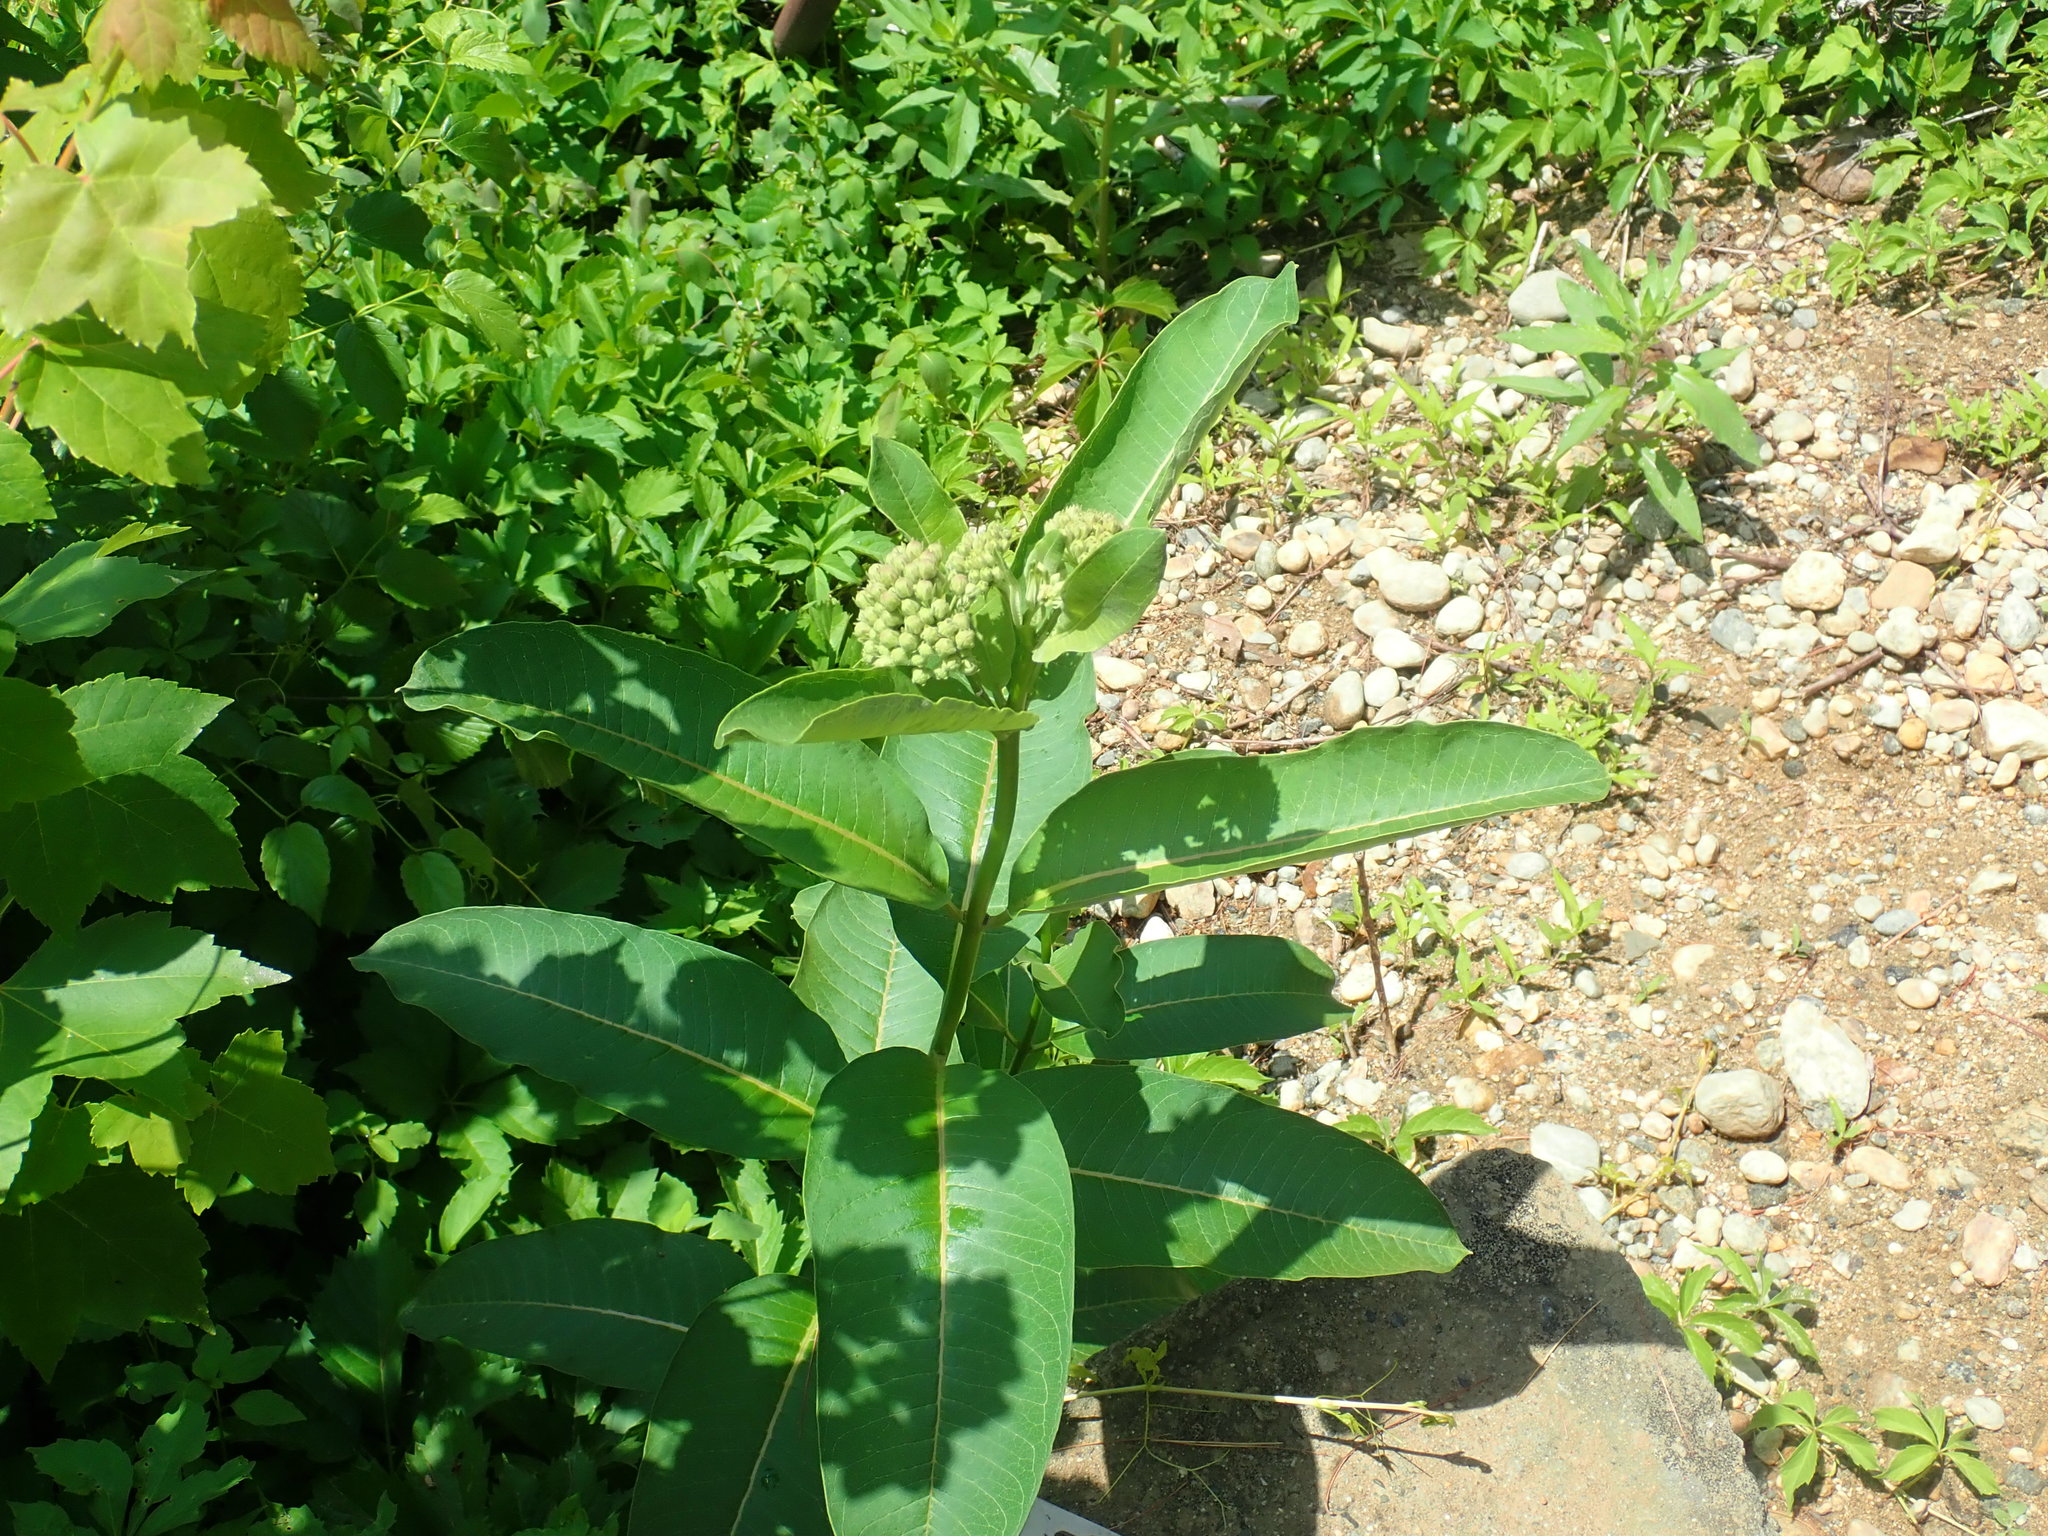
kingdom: Plantae
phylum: Tracheophyta
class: Magnoliopsida
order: Gentianales
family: Apocynaceae
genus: Asclepias
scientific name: Asclepias syriaca
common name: Common milkweed
